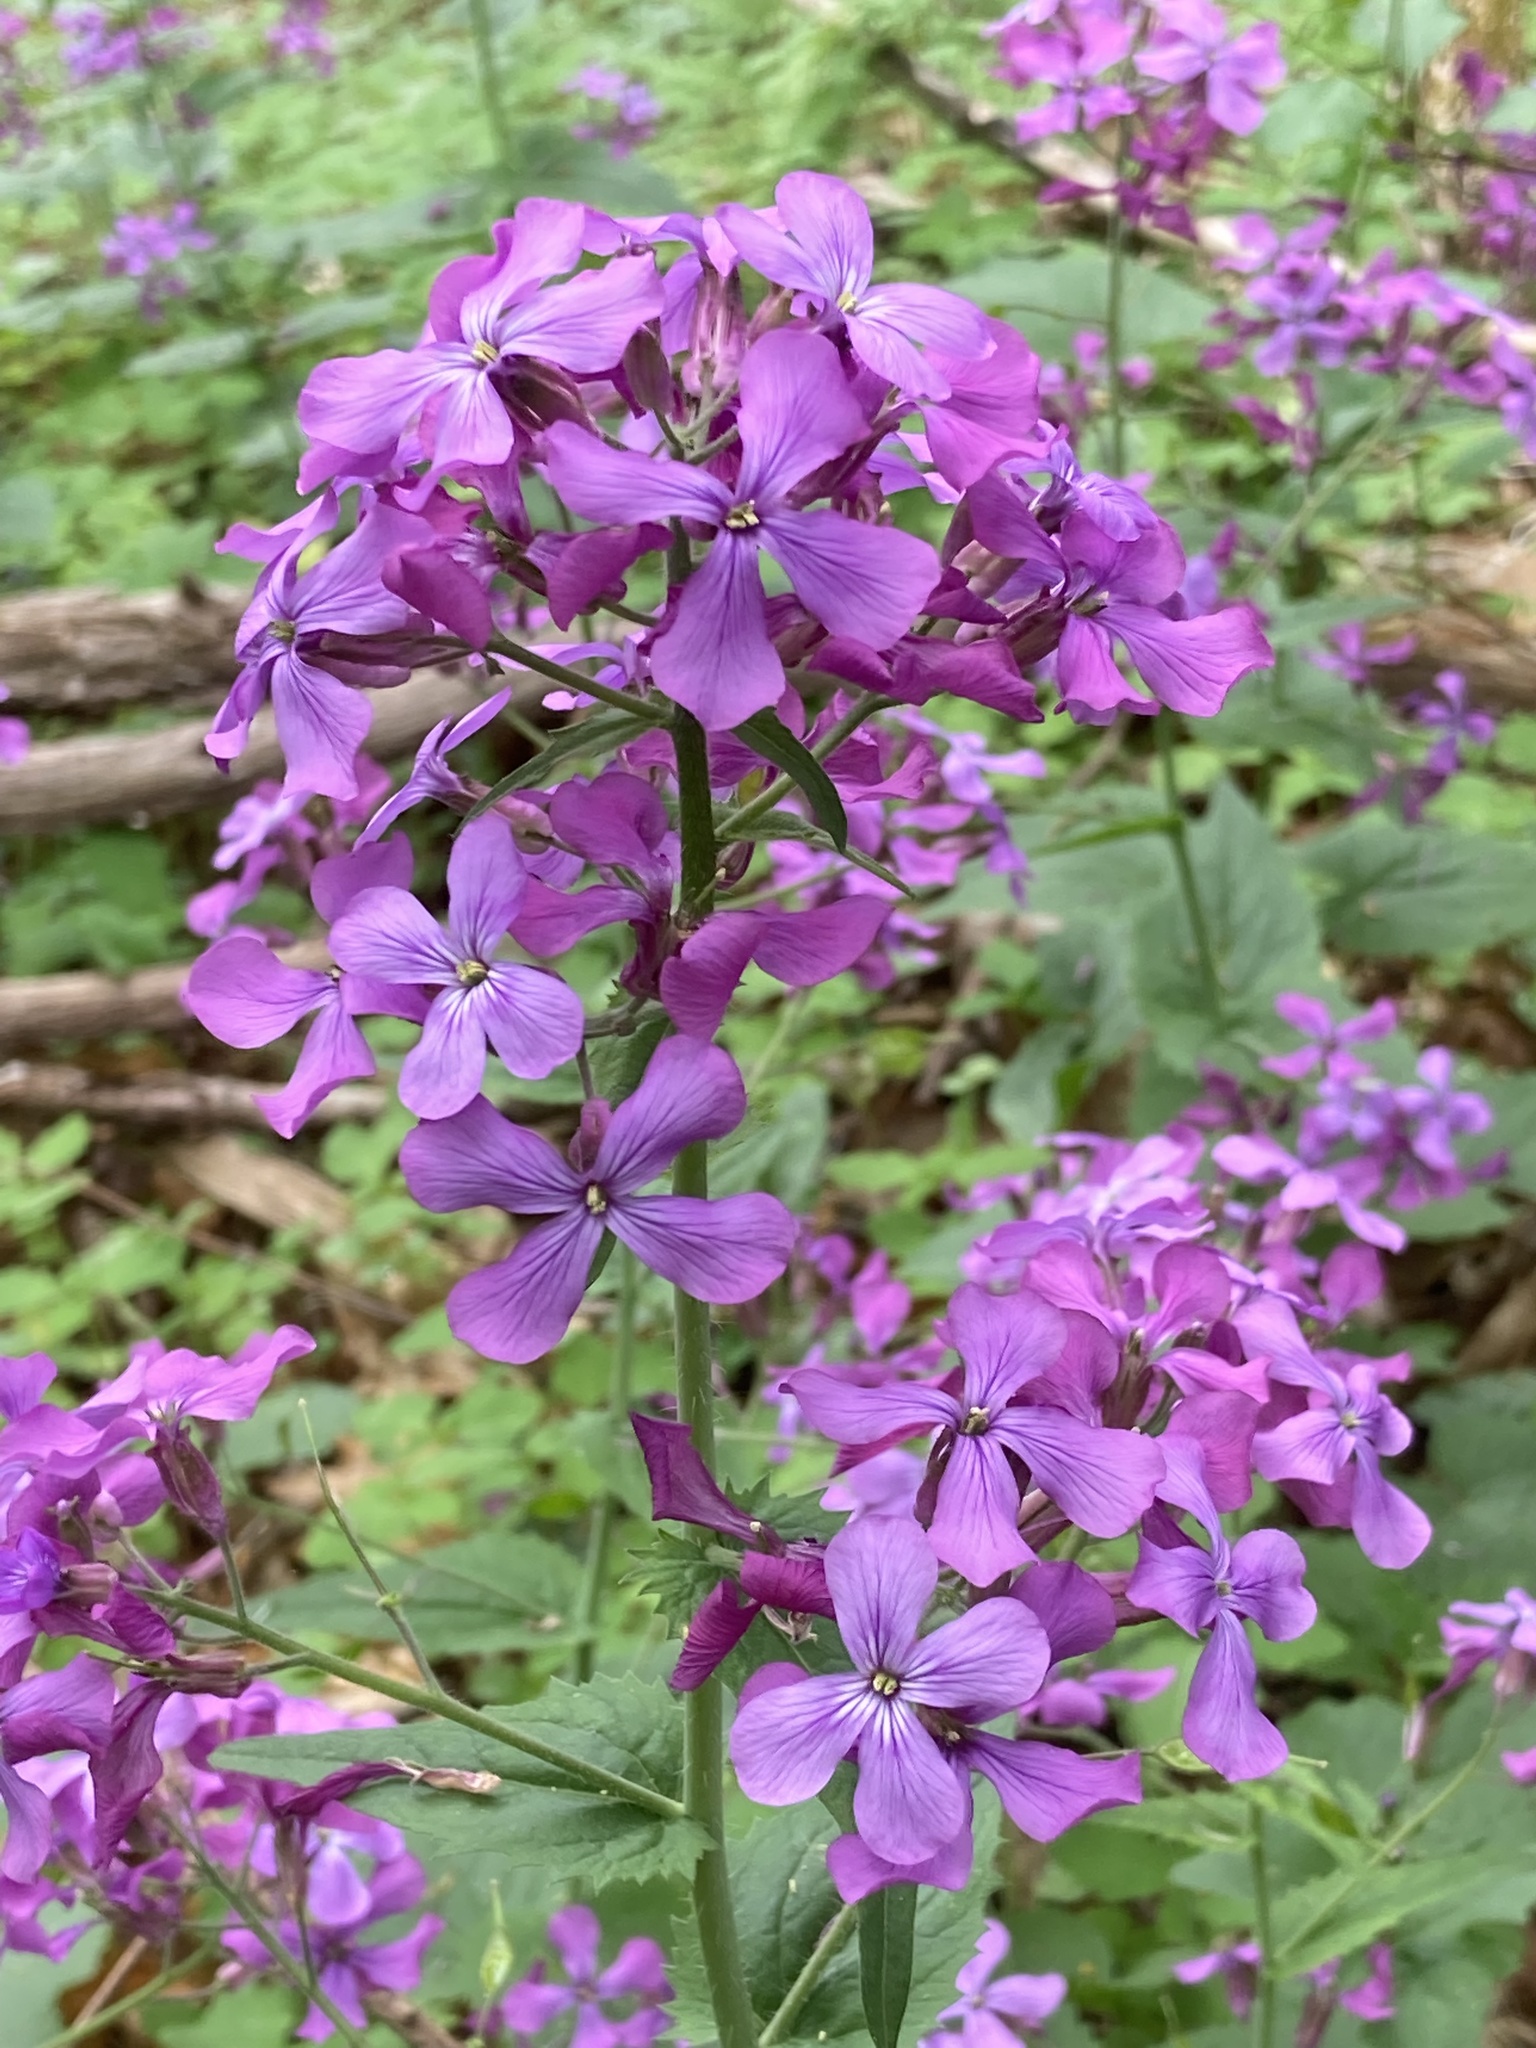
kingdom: Plantae
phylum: Tracheophyta
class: Magnoliopsida
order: Brassicales
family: Brassicaceae
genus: Lunaria
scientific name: Lunaria annua
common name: Honesty
